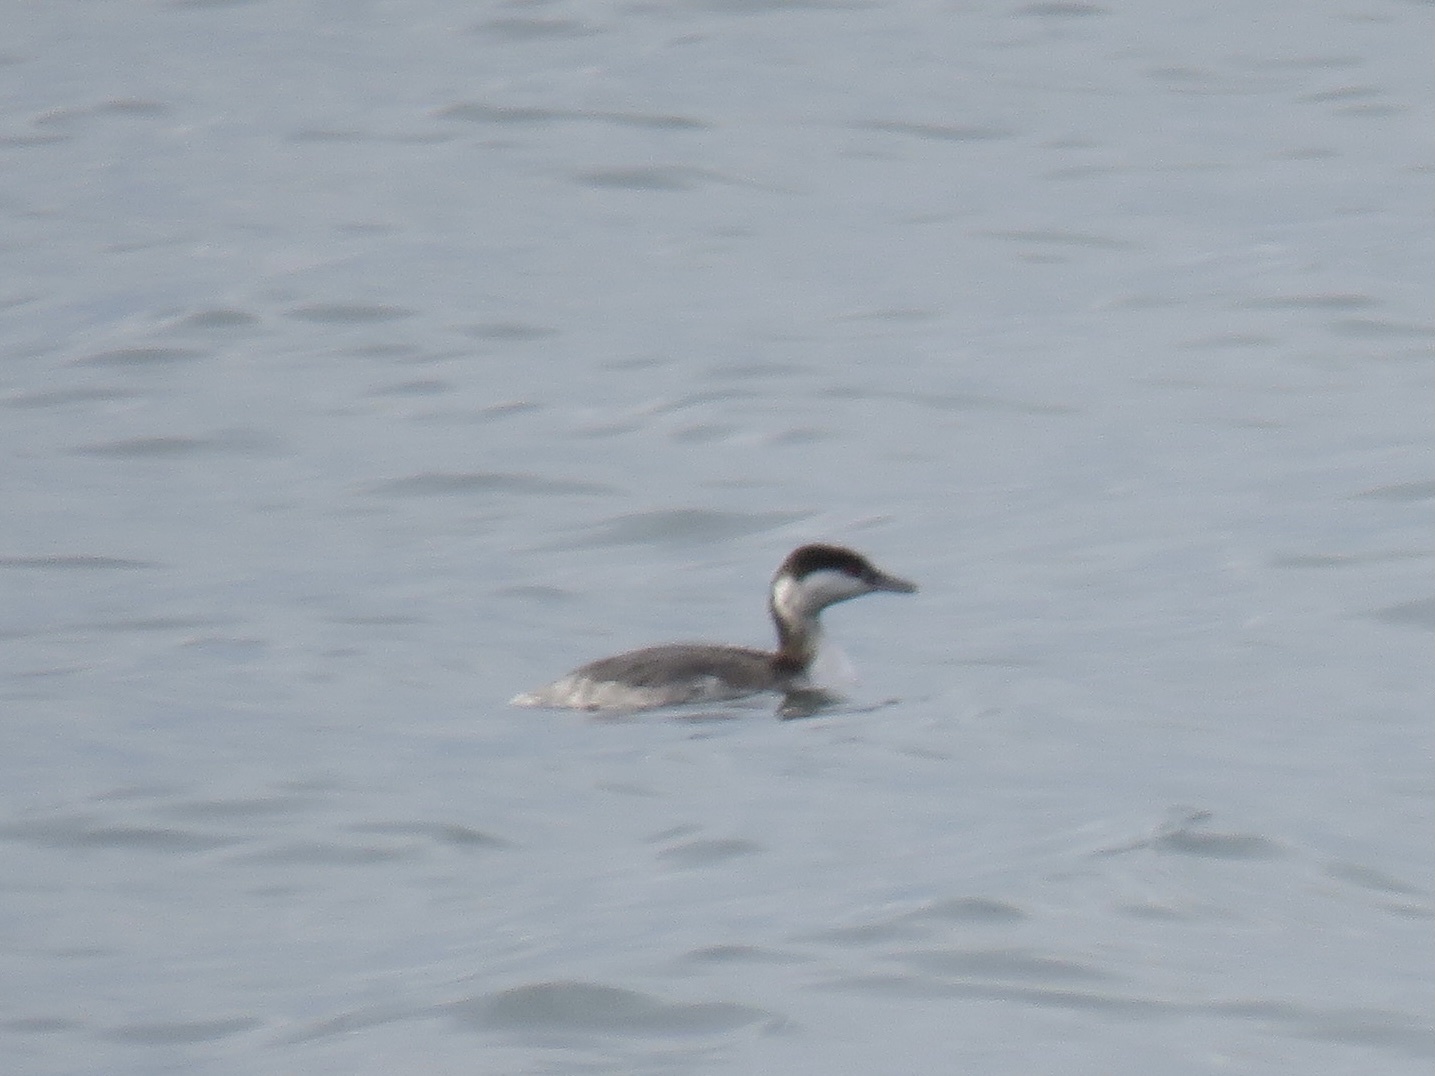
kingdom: Animalia
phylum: Chordata
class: Aves
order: Podicipediformes
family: Podicipedidae
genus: Podiceps
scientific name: Podiceps auritus
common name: Horned grebe
